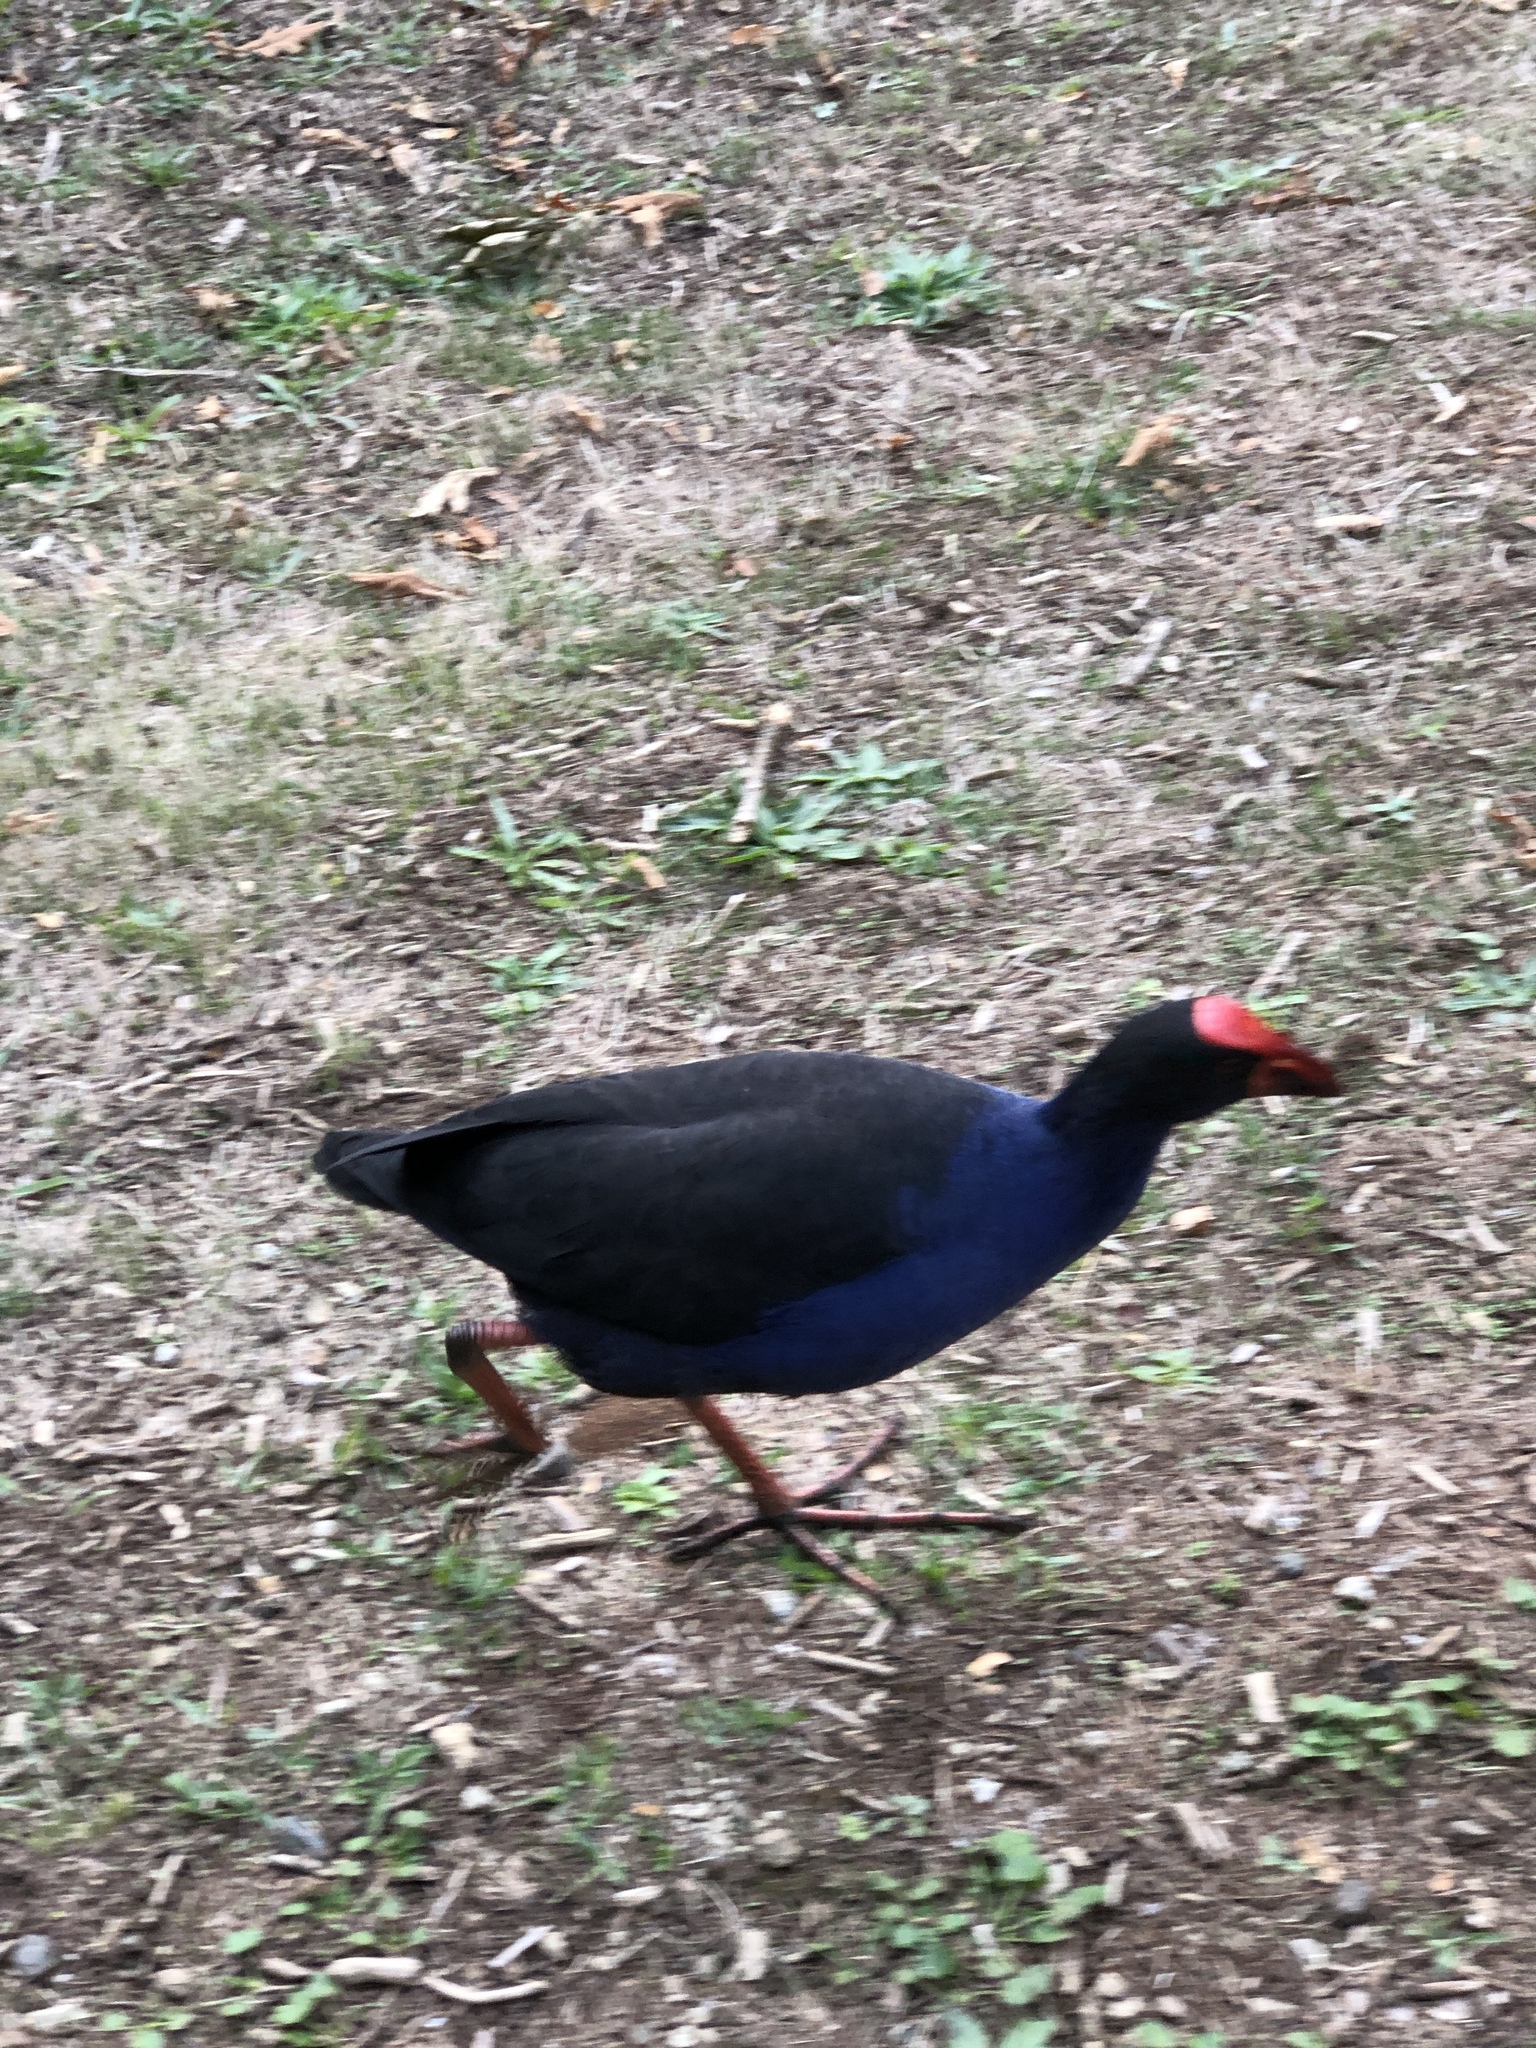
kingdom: Animalia
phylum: Chordata
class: Aves
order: Gruiformes
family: Rallidae
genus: Porphyrio
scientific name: Porphyrio melanotus
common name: Australasian swamphen
